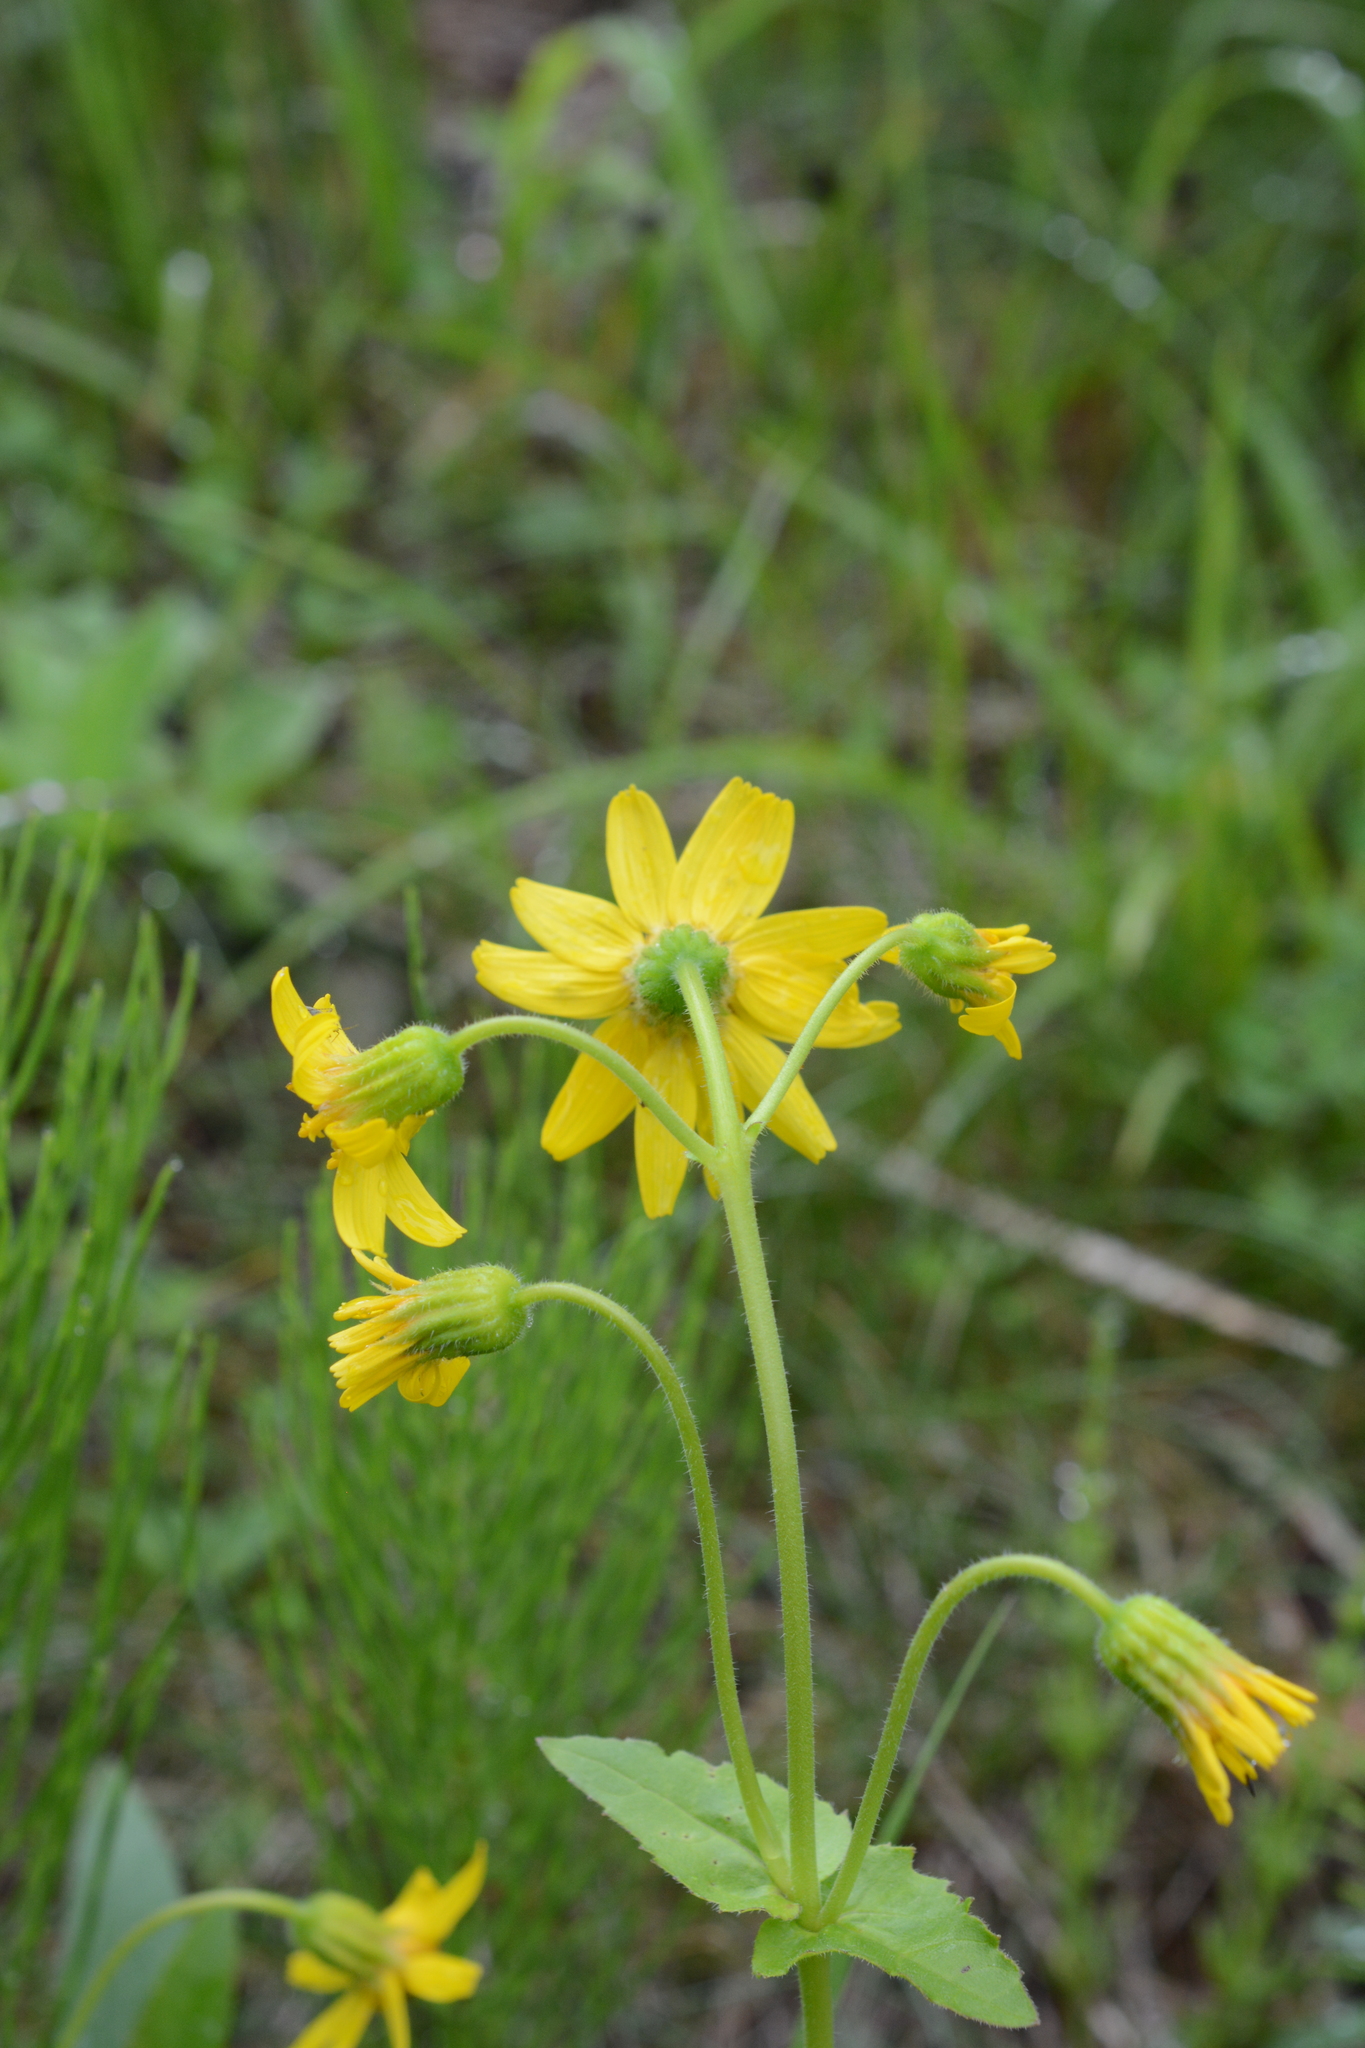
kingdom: Plantae
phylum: Tracheophyta
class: Magnoliopsida
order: Asterales
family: Asteraceae
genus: Arnica
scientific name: Arnica latifolia
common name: Arnica
